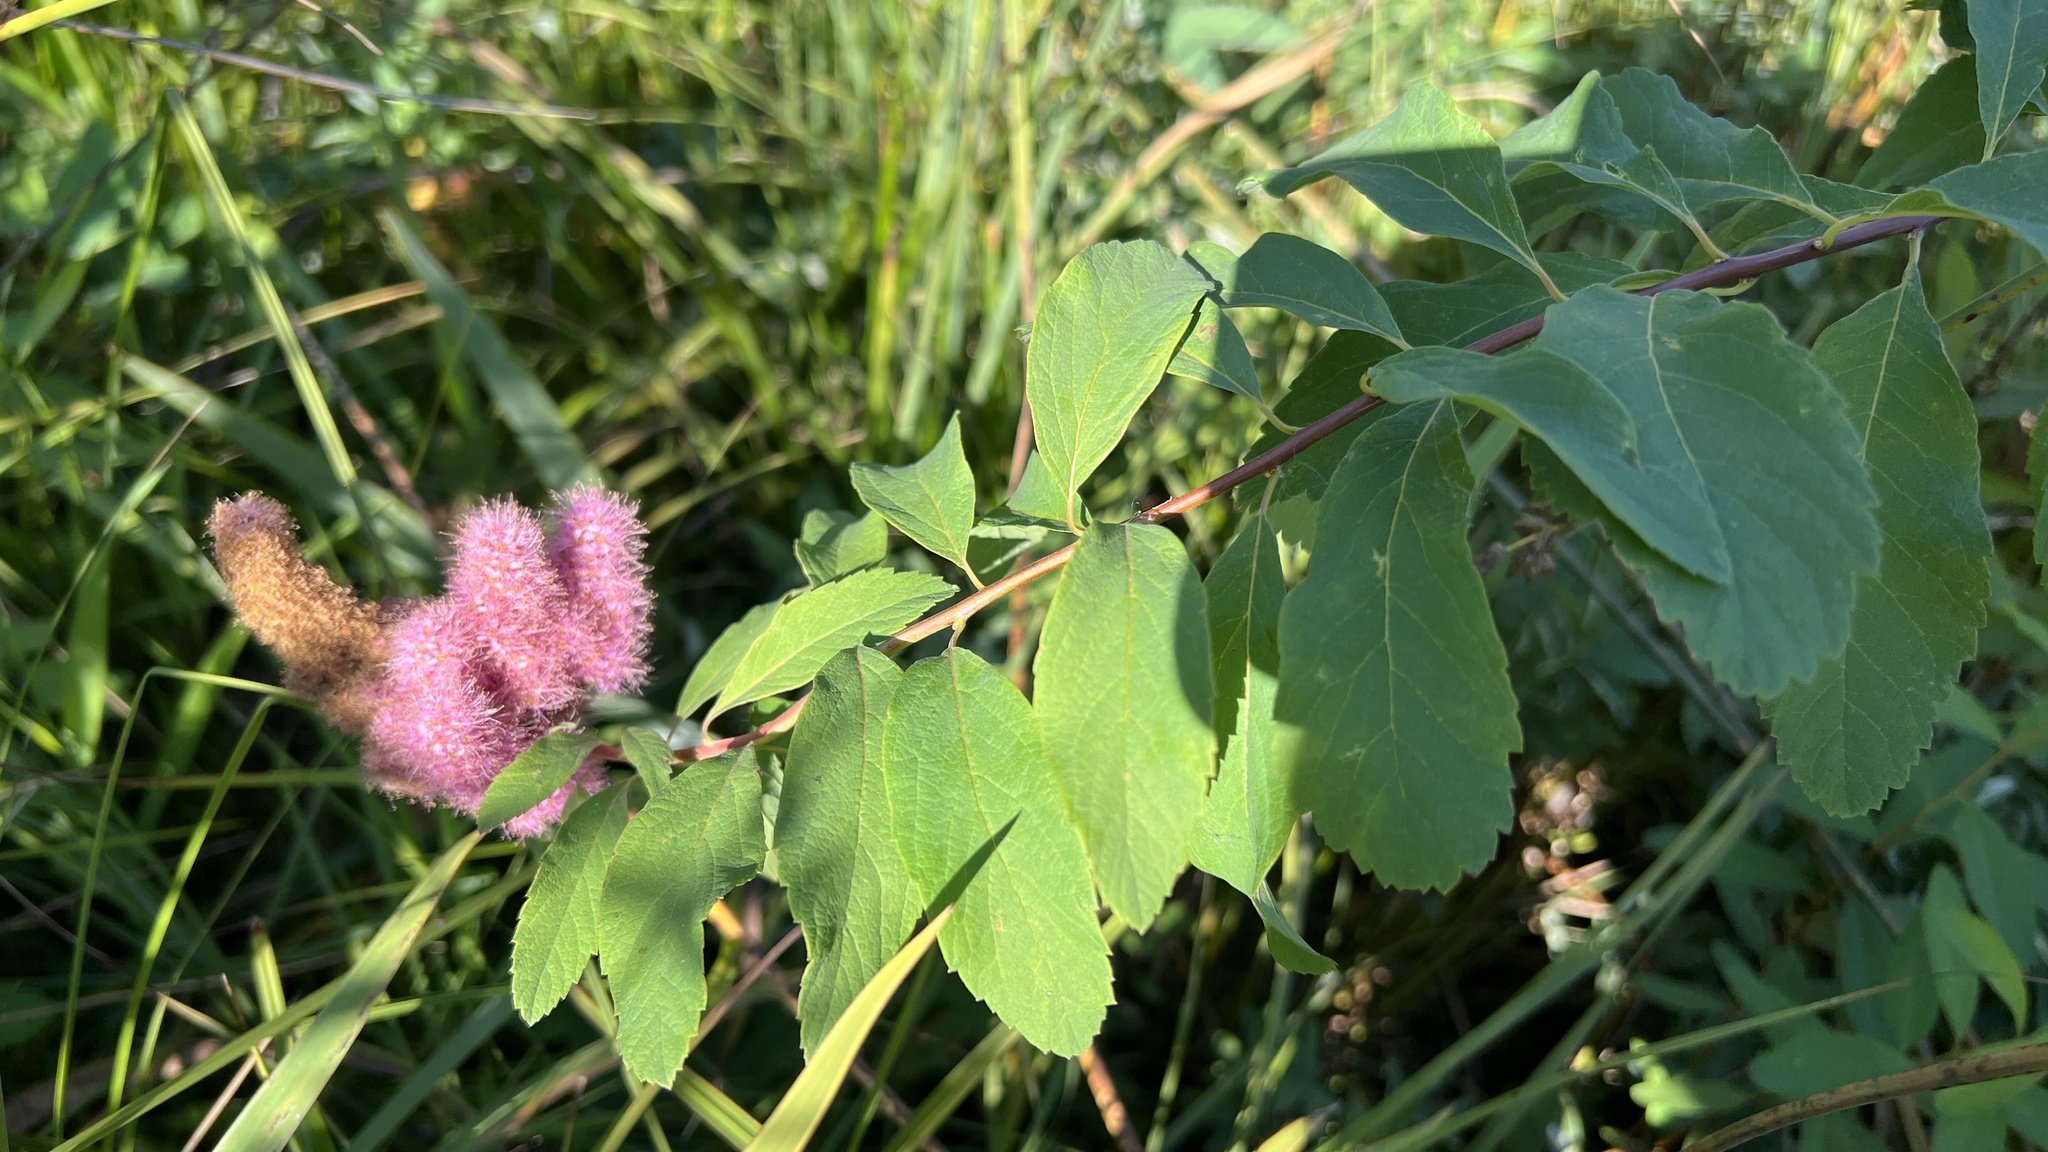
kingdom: Plantae
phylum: Tracheophyta
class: Magnoliopsida
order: Rosales
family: Rosaceae
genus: Spiraea
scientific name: Spiraea douglasii
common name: Steeplebush
